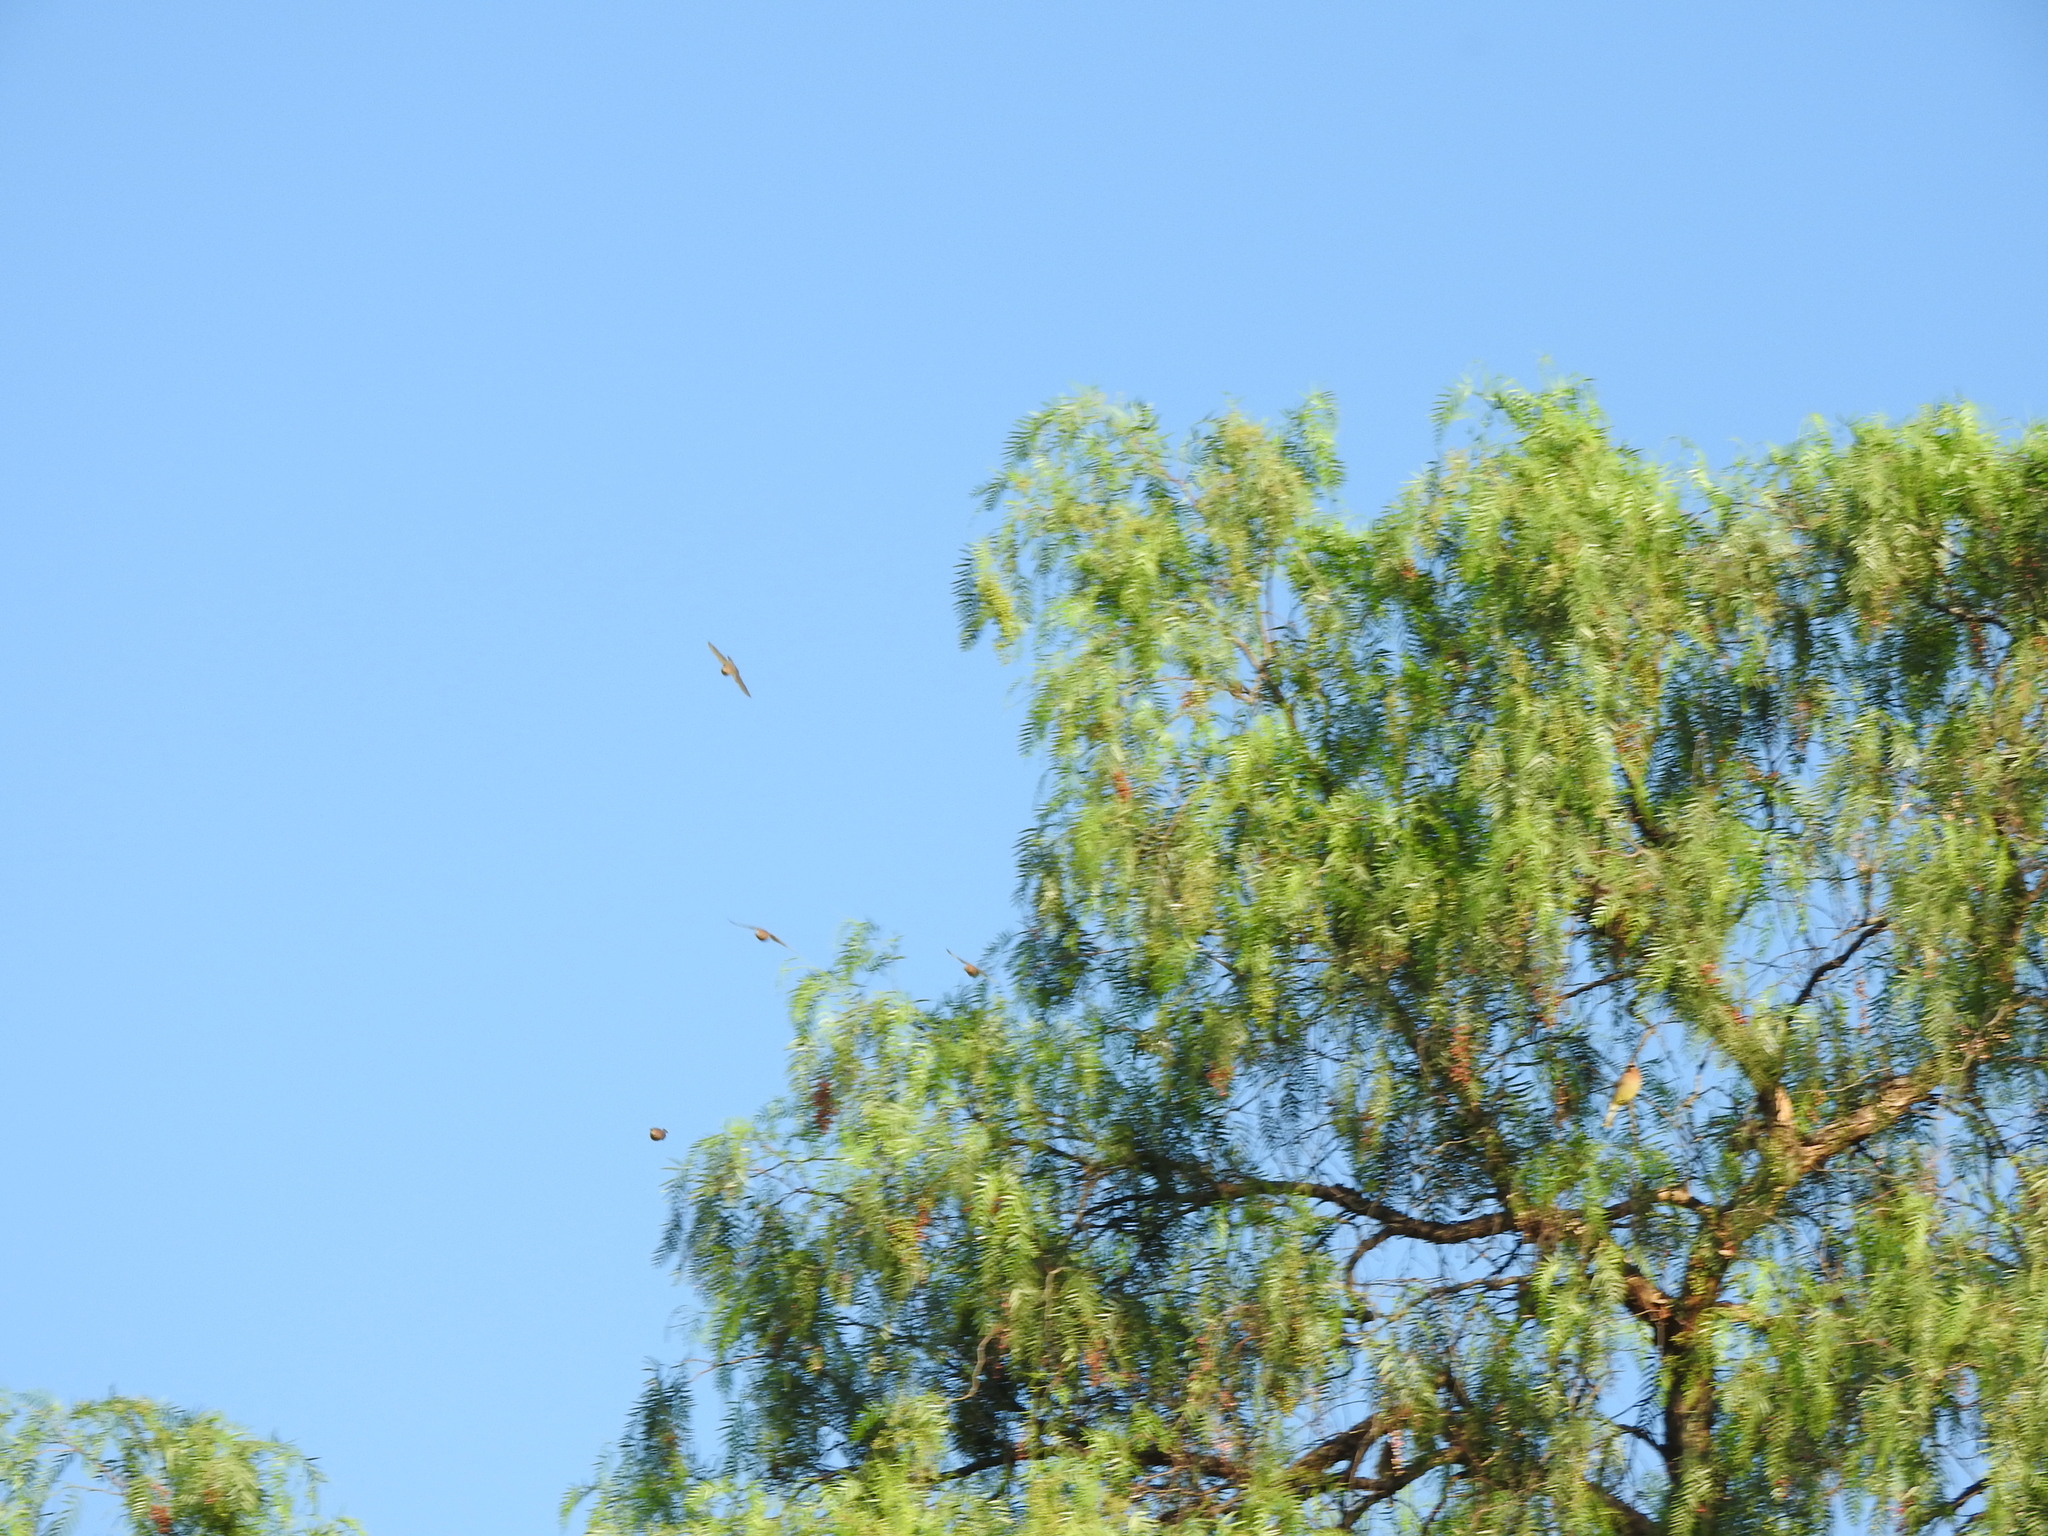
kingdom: Animalia
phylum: Chordata
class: Aves
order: Passeriformes
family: Bombycillidae
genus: Bombycilla
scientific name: Bombycilla cedrorum
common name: Cedar waxwing
